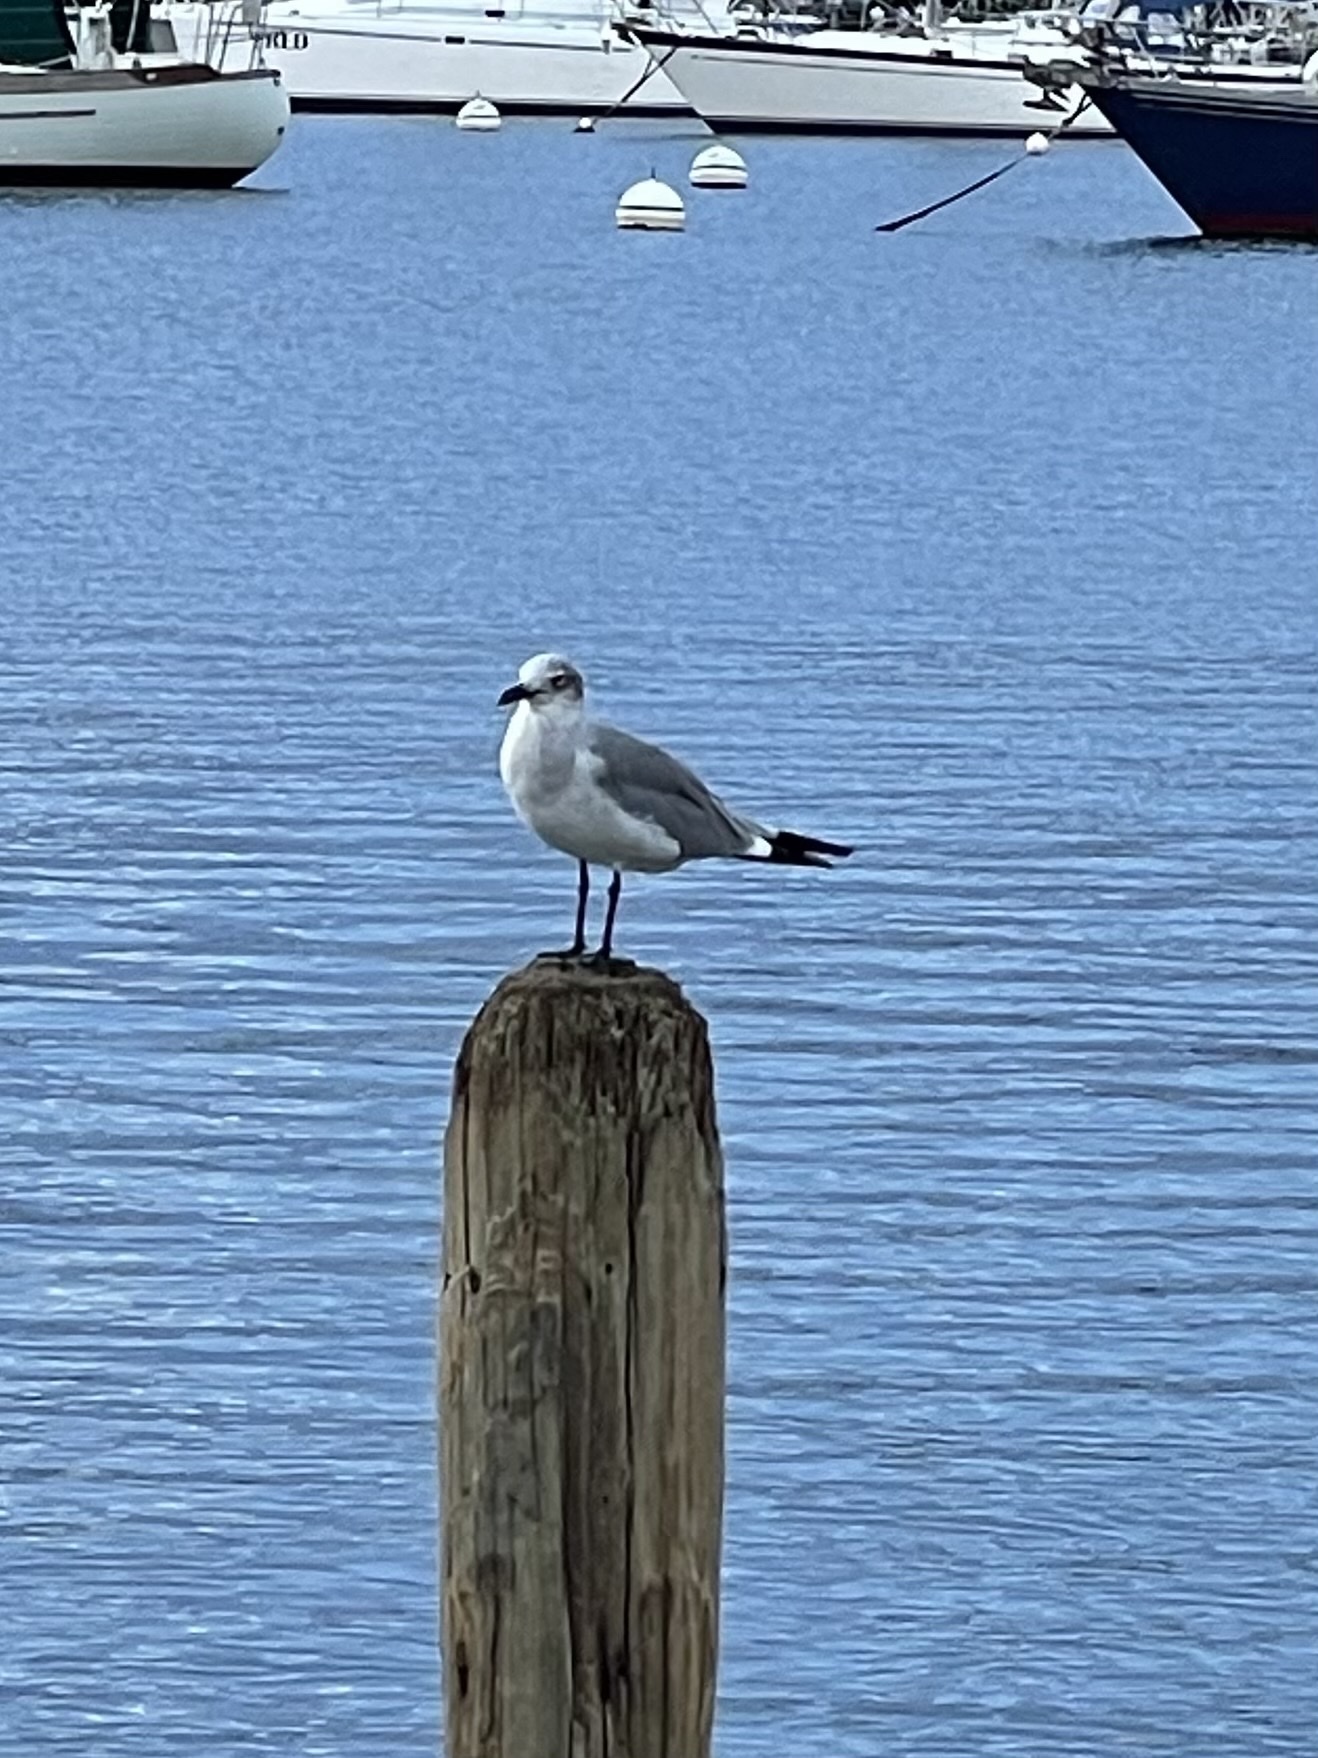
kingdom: Animalia
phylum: Chordata
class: Aves
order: Charadriiformes
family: Laridae
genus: Leucophaeus
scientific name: Leucophaeus atricilla
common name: Laughing gull
